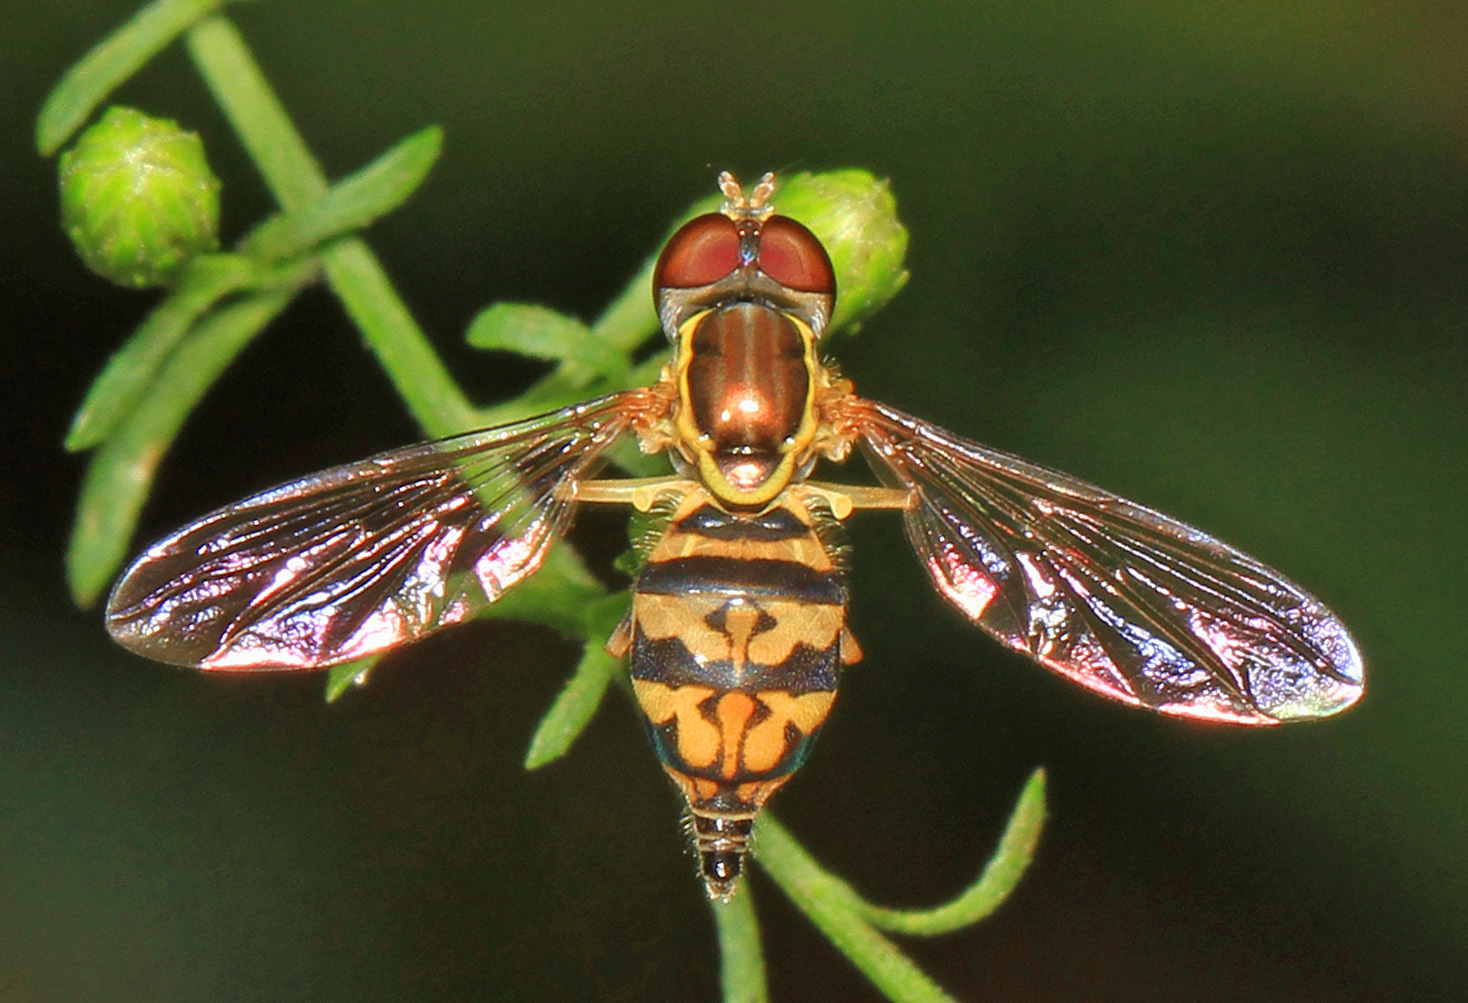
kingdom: Animalia
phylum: Arthropoda
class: Insecta
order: Diptera
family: Syrphidae
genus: Toxomerus
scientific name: Toxomerus geminatus
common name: Eastern calligrapher
